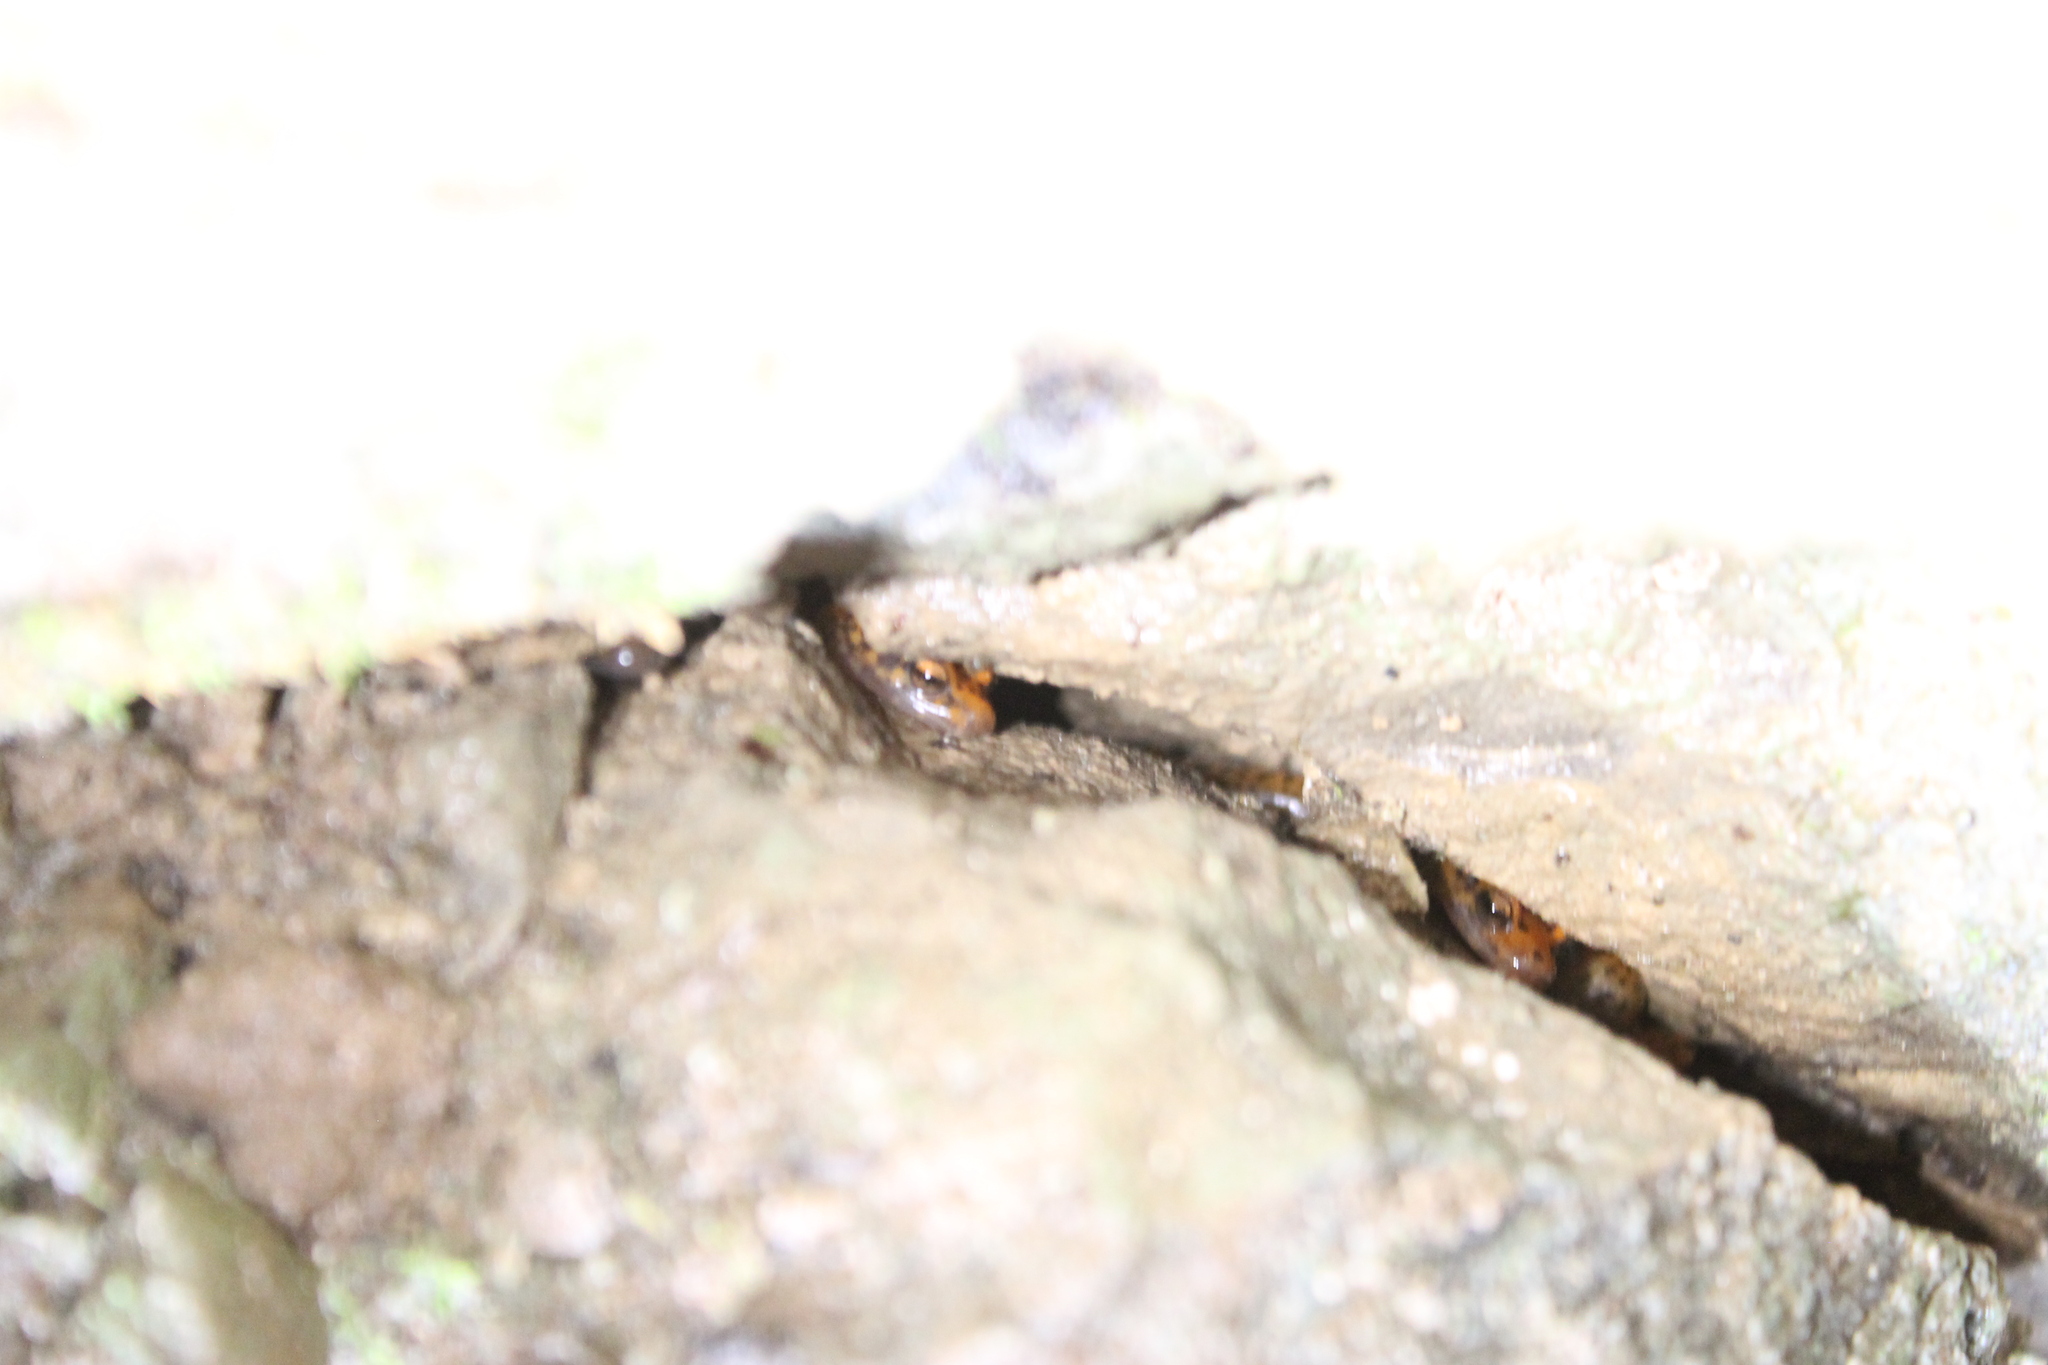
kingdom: Animalia
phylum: Chordata
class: Amphibia
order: Caudata
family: Plethodontidae
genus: Eurycea
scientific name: Eurycea lucifuga
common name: Cave salamander
